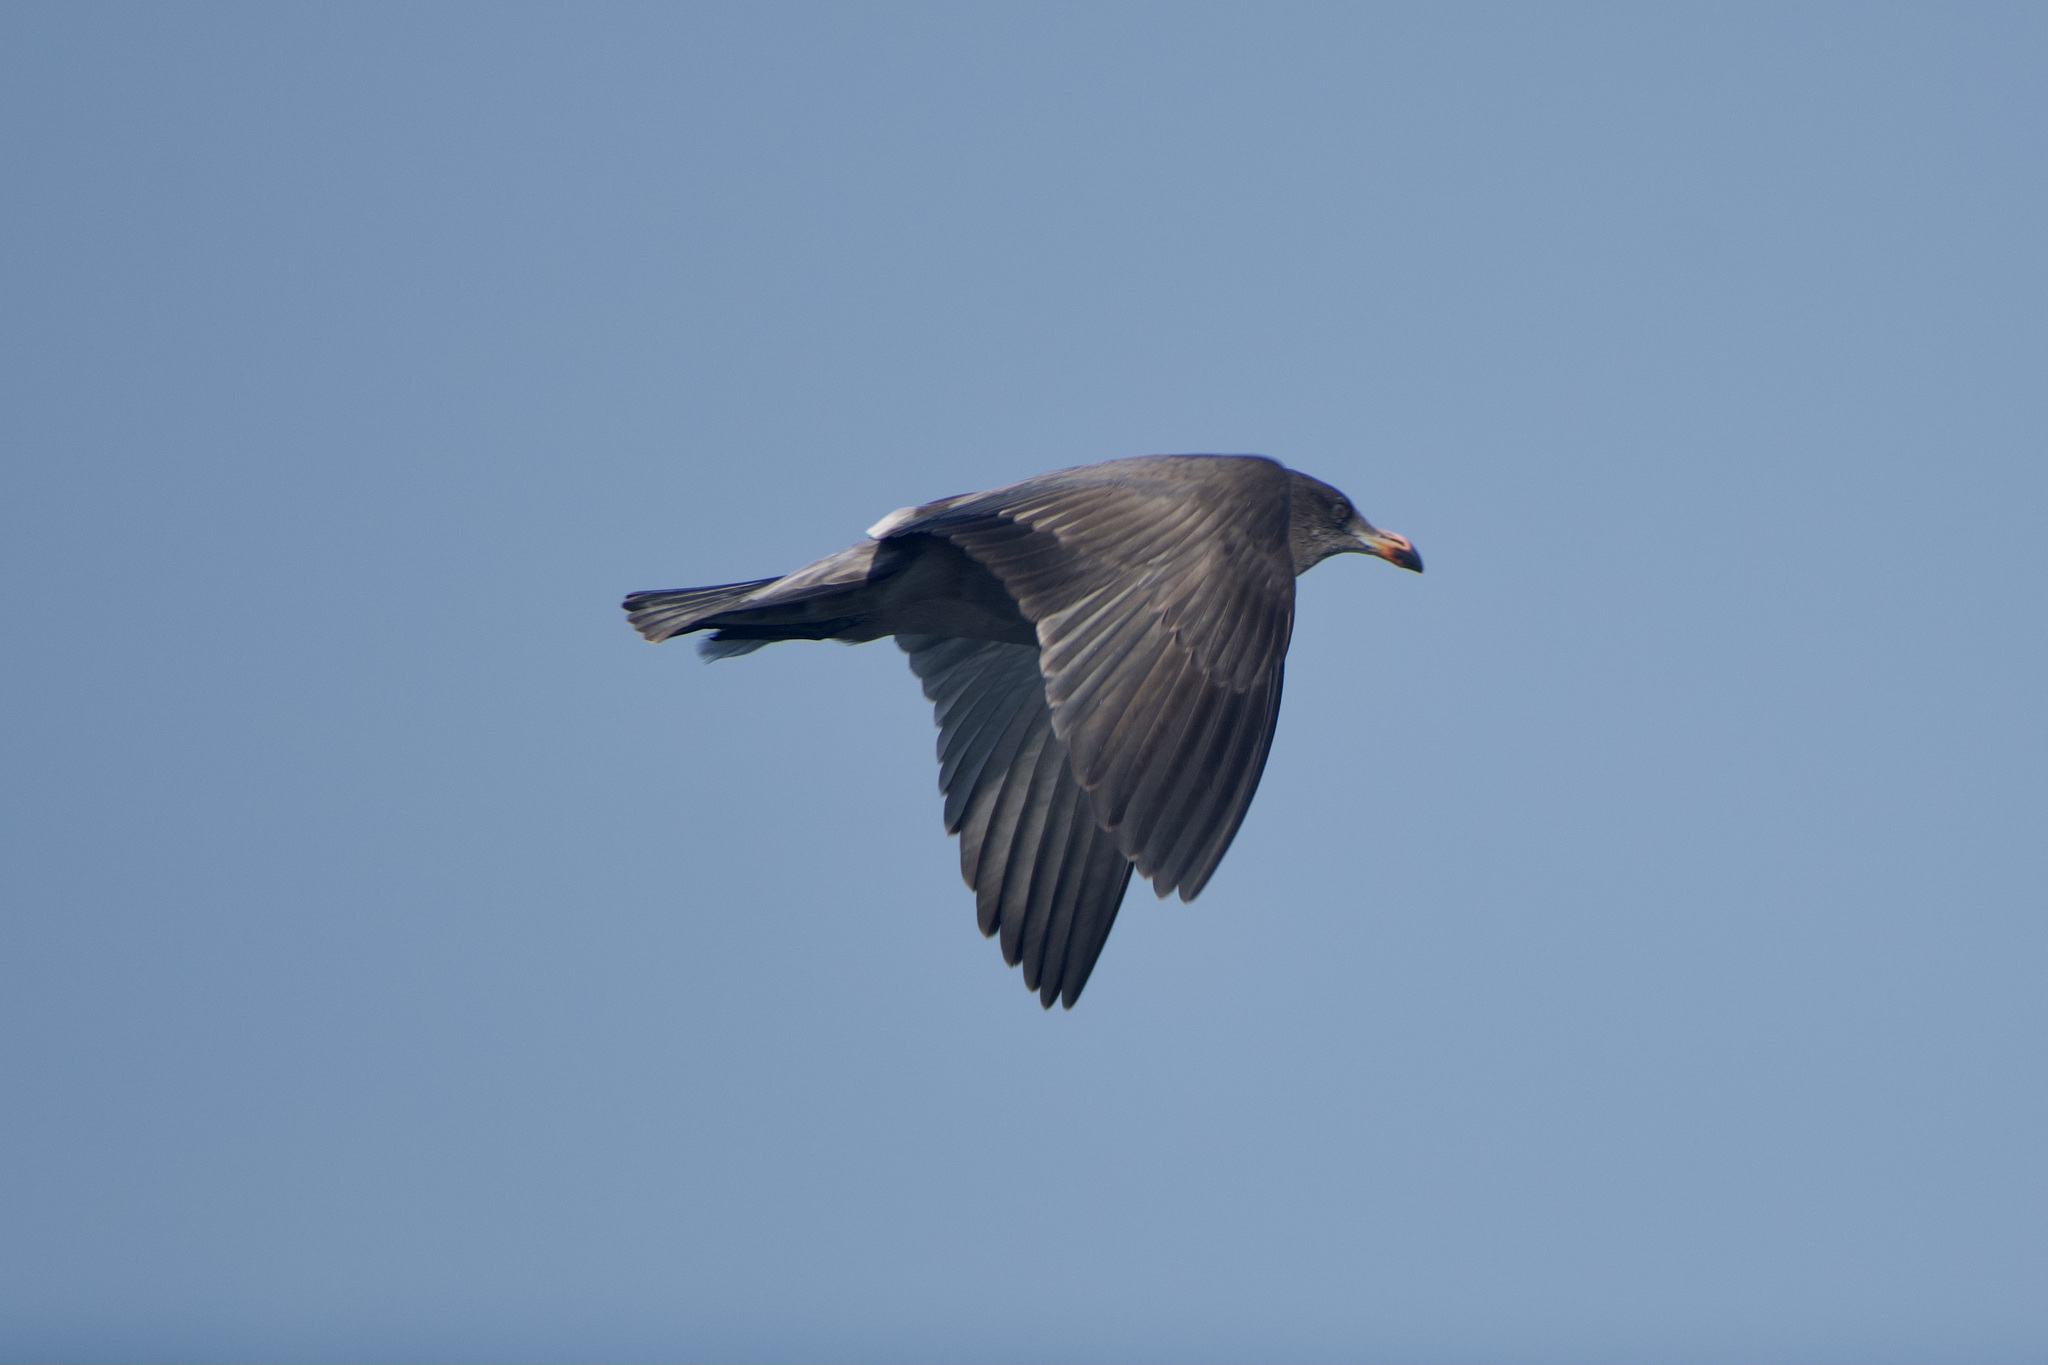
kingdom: Animalia
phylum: Chordata
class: Aves
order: Charadriiformes
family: Laridae
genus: Larus
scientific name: Larus heermanni
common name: Heermann's gull
